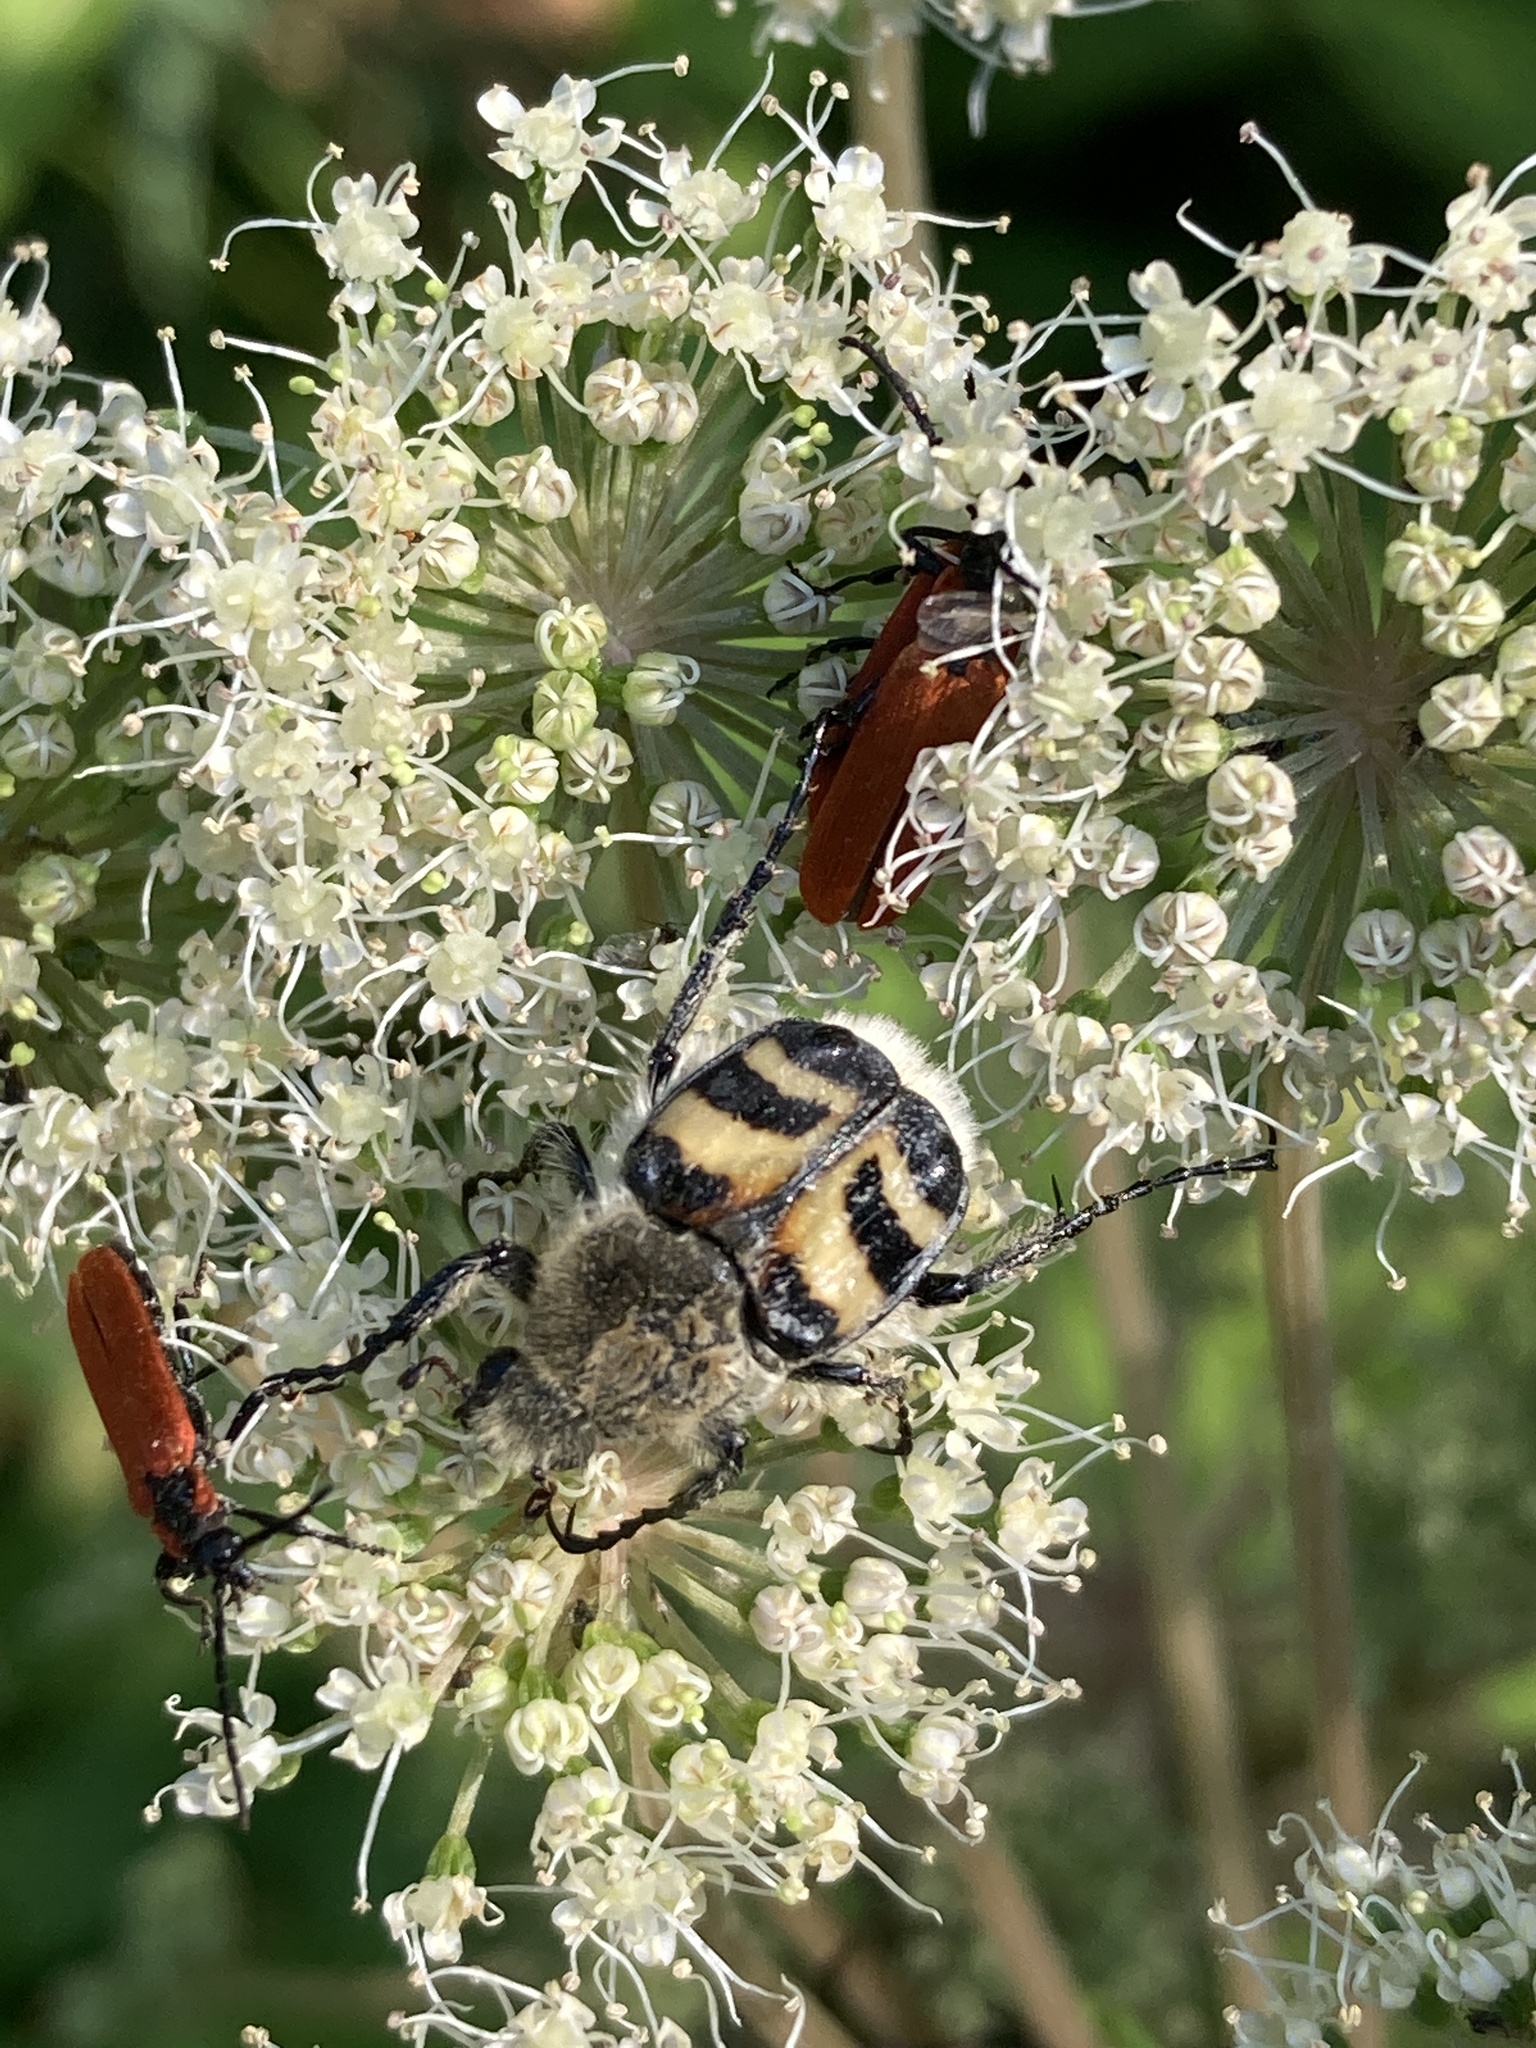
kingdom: Animalia
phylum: Arthropoda
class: Insecta
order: Coleoptera
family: Scarabaeidae
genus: Trichius
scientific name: Trichius fasciatus
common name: Bee beetle
